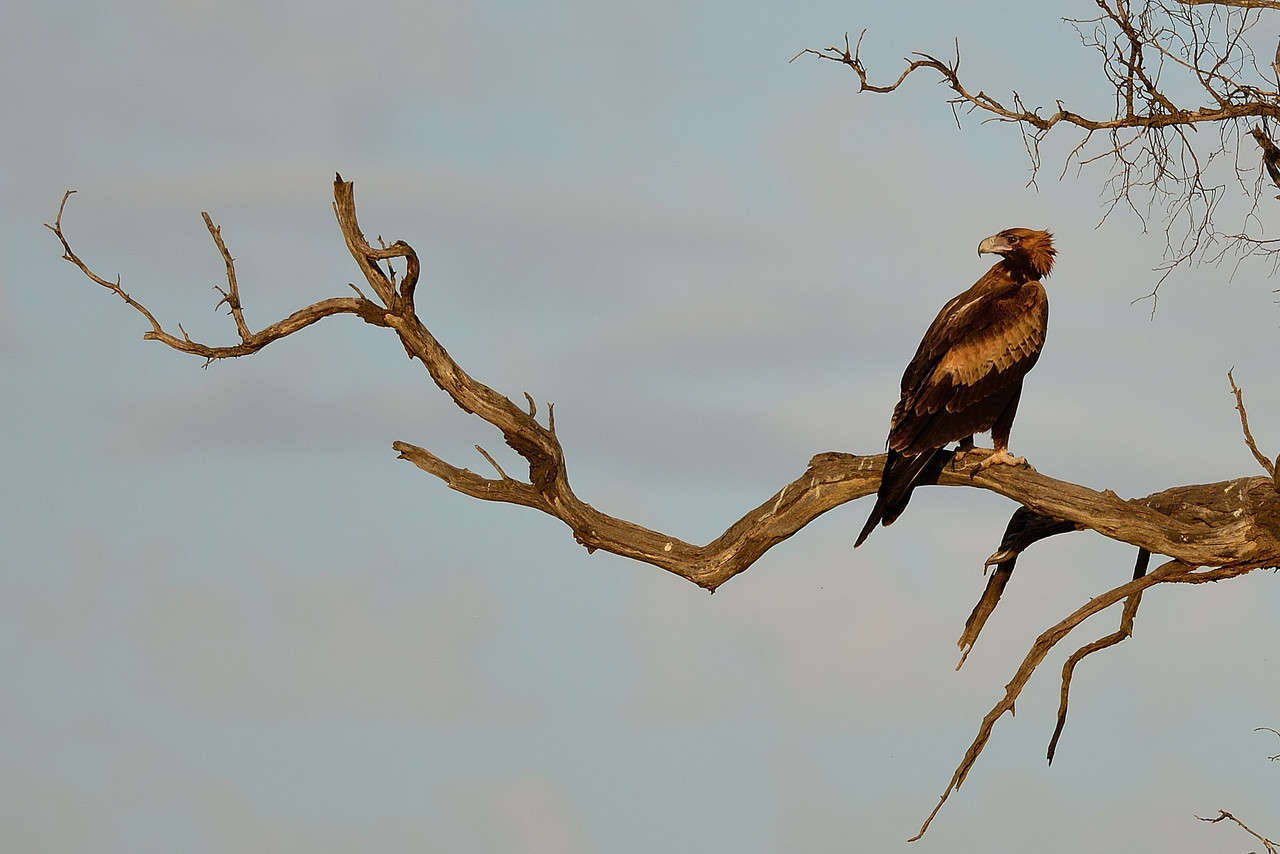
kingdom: Animalia
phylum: Chordata
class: Aves
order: Accipitriformes
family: Accipitridae
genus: Aquila
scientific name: Aquila audax
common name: Wedge-tailed eagle
